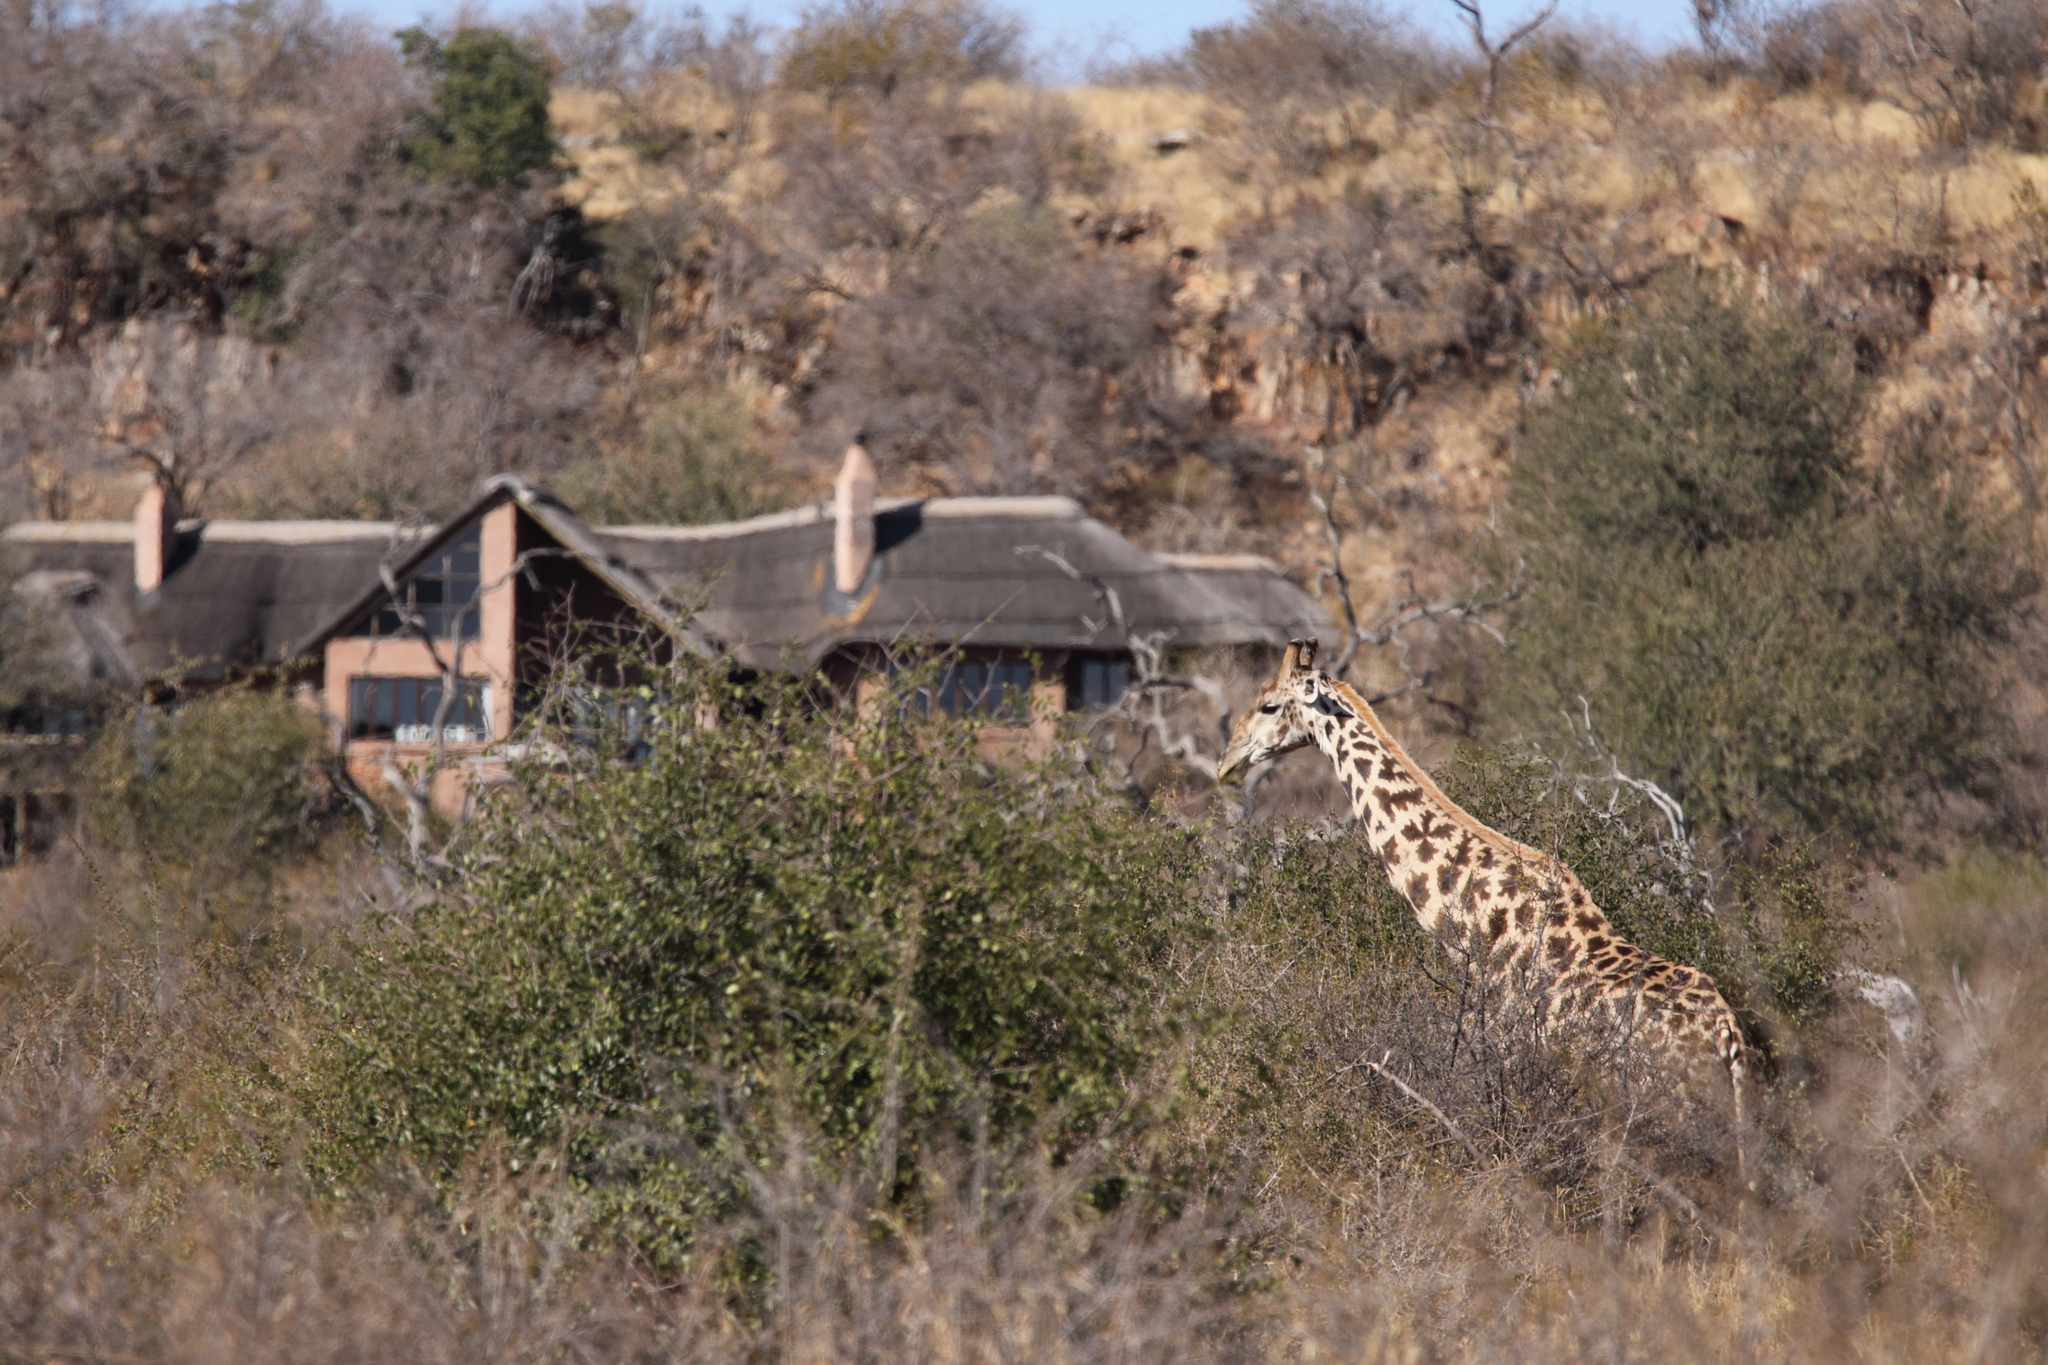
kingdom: Animalia
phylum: Chordata
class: Mammalia
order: Artiodactyla
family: Giraffidae
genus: Giraffa
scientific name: Giraffa giraffa
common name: Southern giraffe
